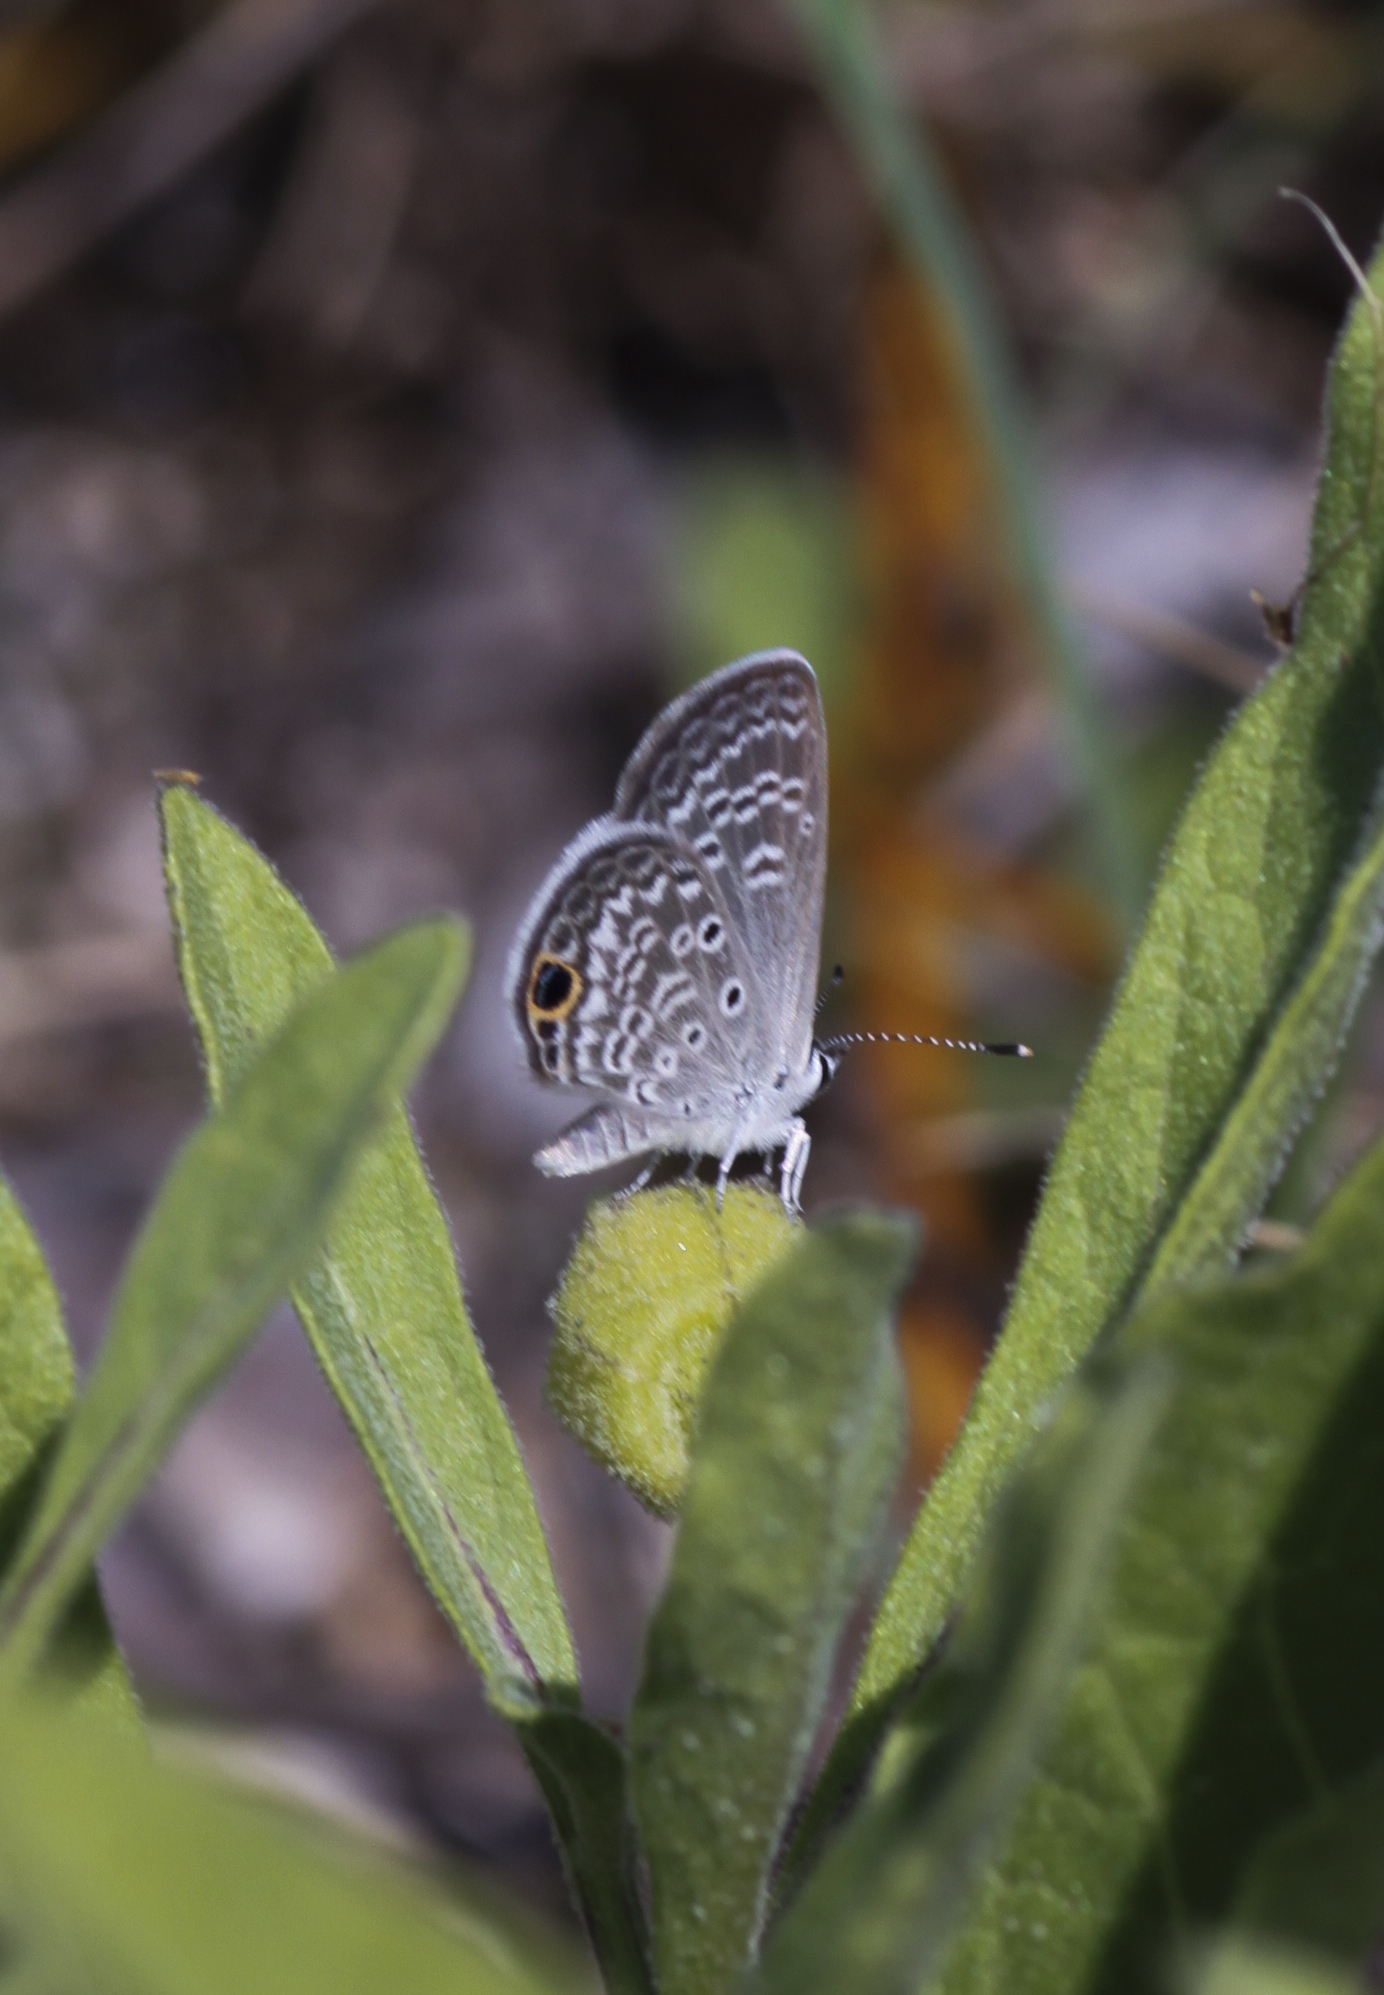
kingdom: Animalia
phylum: Arthropoda
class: Insecta
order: Lepidoptera
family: Lycaenidae
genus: Hemiargus
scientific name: Hemiargus ceraunus
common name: Ceraunus blue
